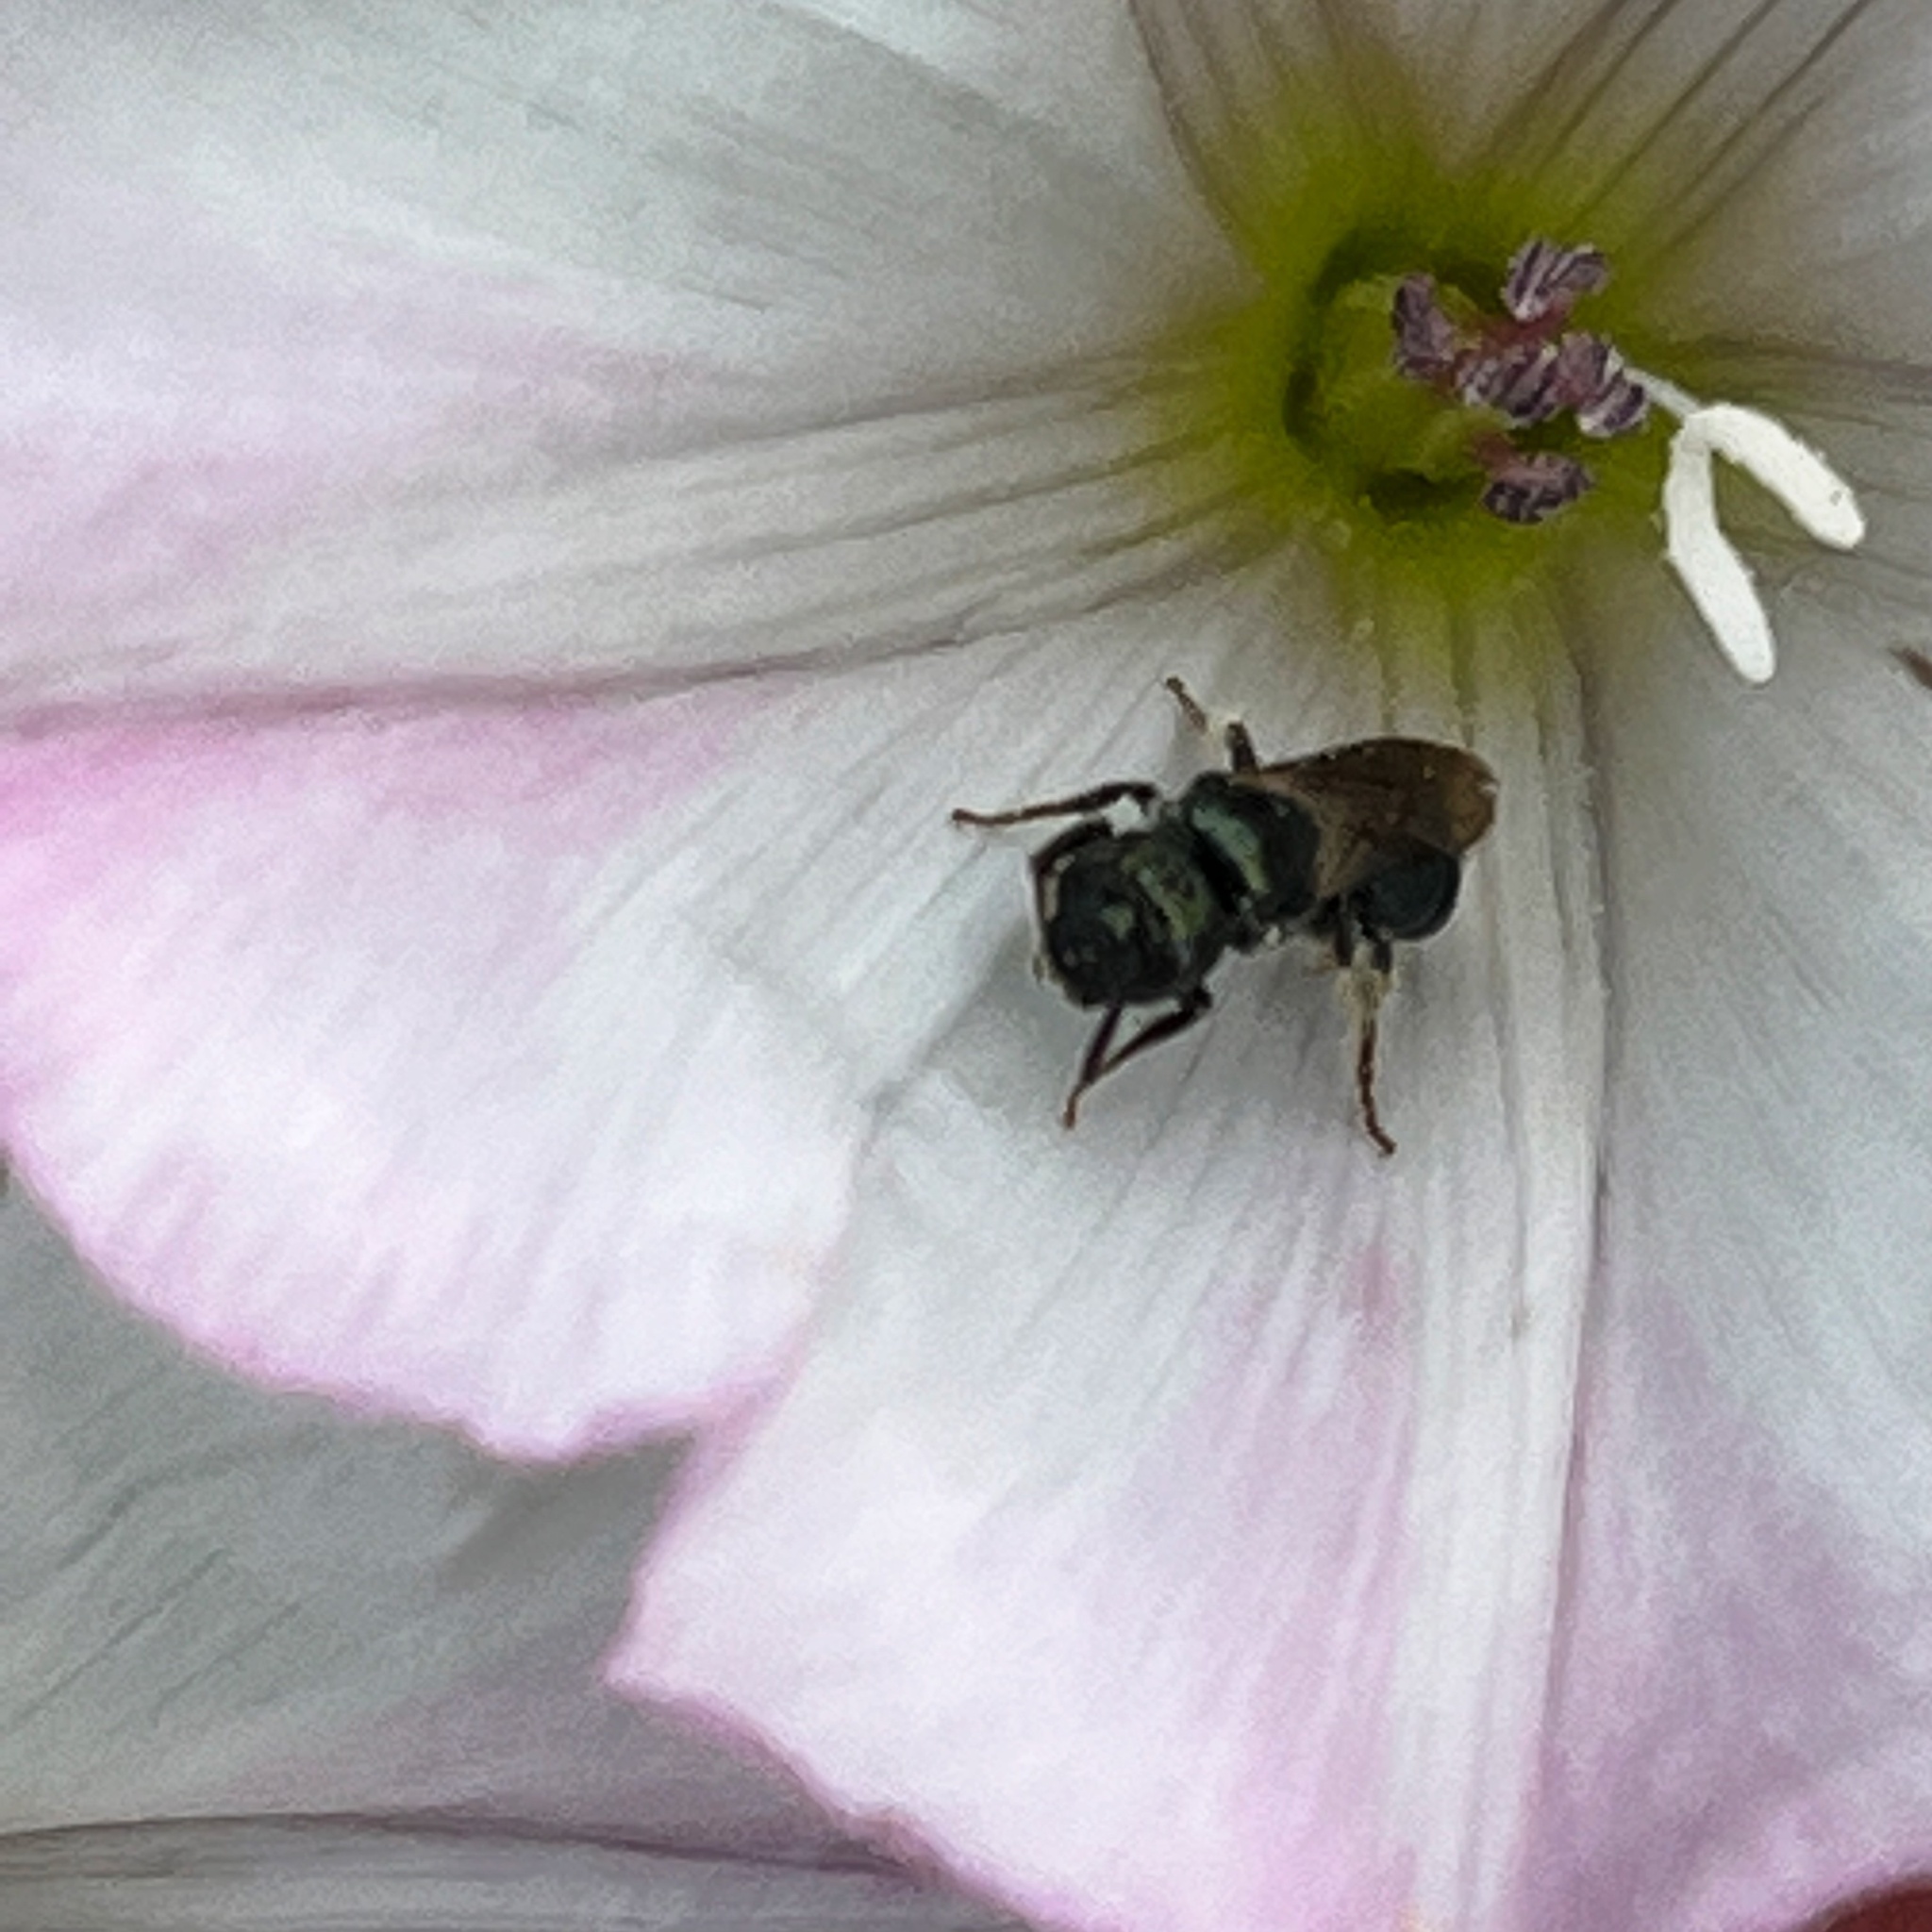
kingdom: Animalia
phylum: Arthropoda
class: Insecta
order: Hymenoptera
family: Apidae
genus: Zadontomerus
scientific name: Zadontomerus
